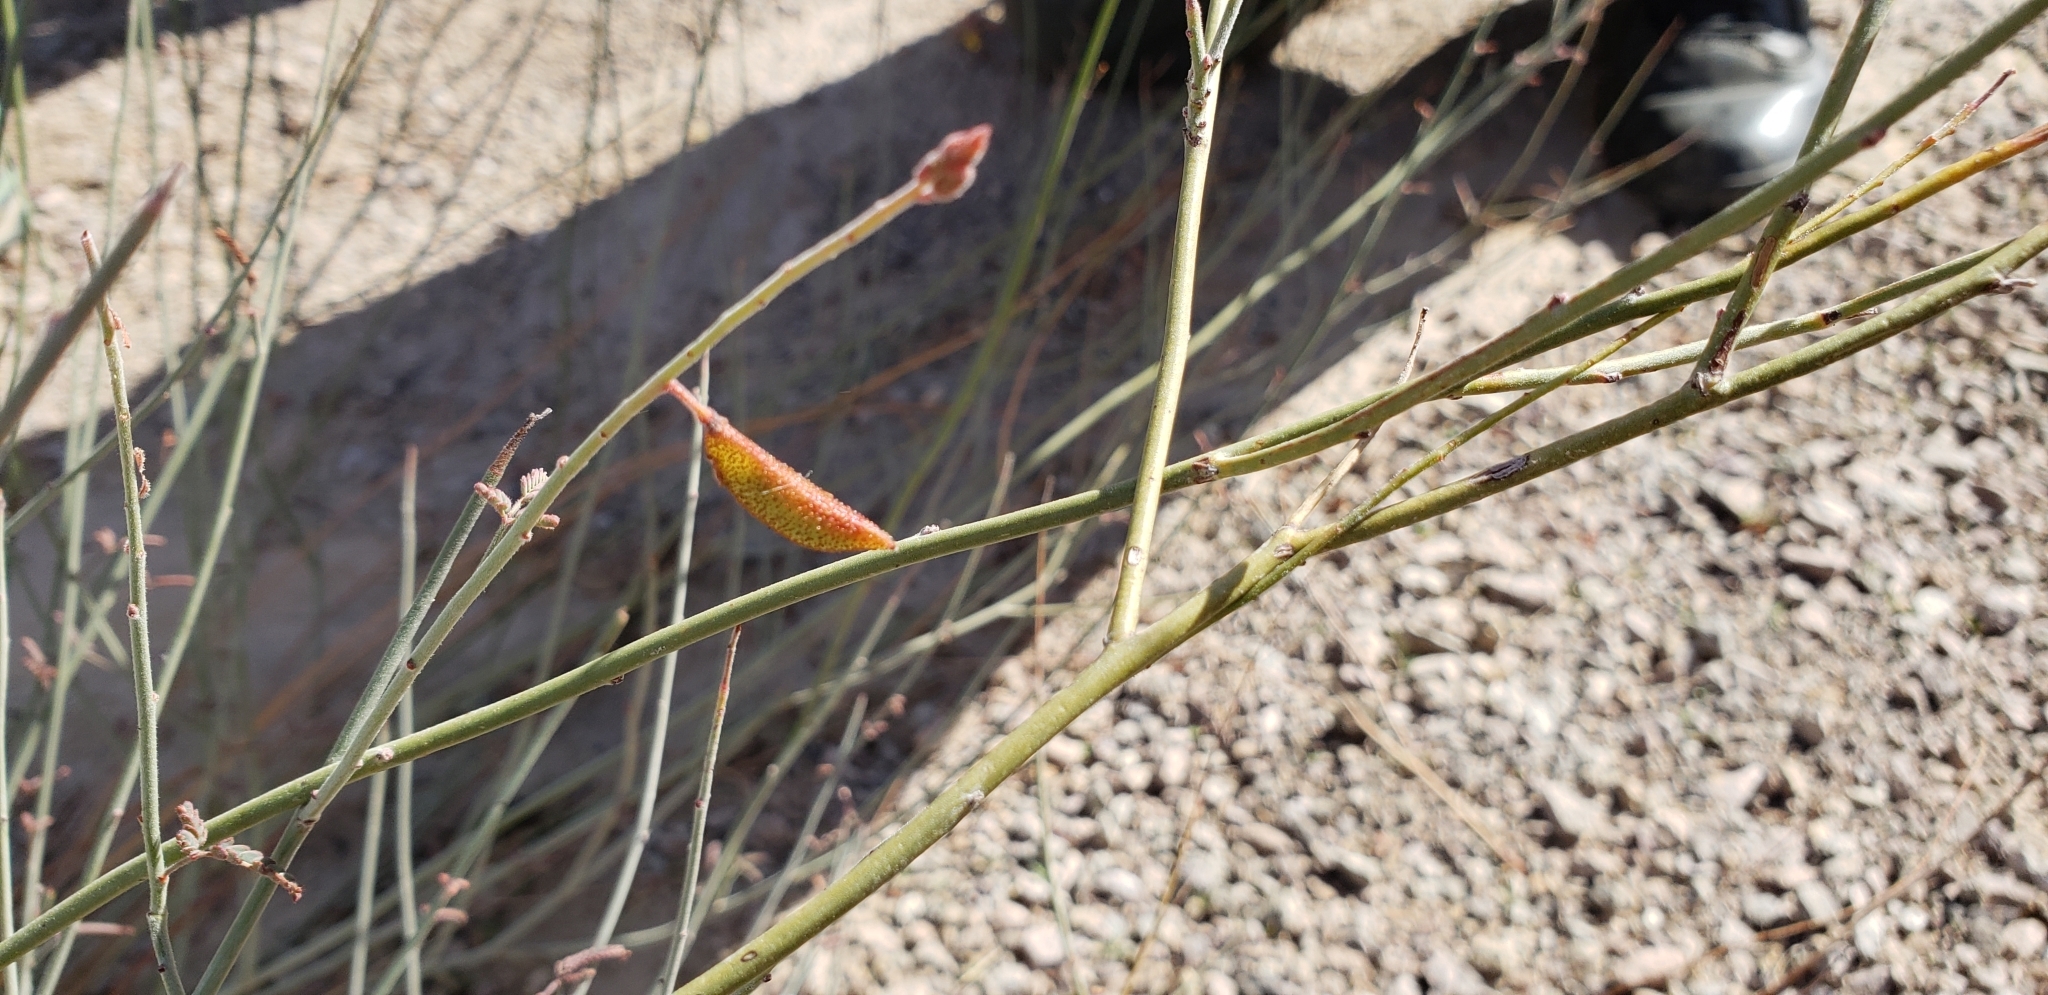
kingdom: Plantae
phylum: Tracheophyta
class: Magnoliopsida
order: Fabales
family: Fabaceae
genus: Hoffmannseggia
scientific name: Hoffmannseggia microphylla
